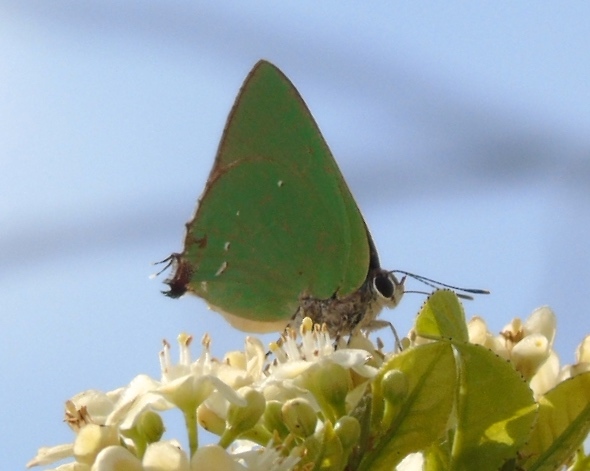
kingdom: Animalia
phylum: Arthropoda
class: Insecta
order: Lepidoptera
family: Lycaenidae
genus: Thecla
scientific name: Thecla herodotus
